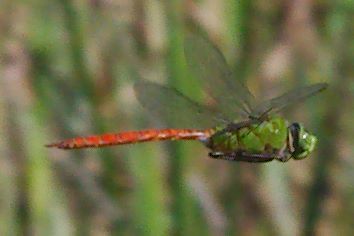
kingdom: Animalia
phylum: Arthropoda
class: Insecta
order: Odonata
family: Aeshnidae
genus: Anax
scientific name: Anax longipes
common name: Comet darner
